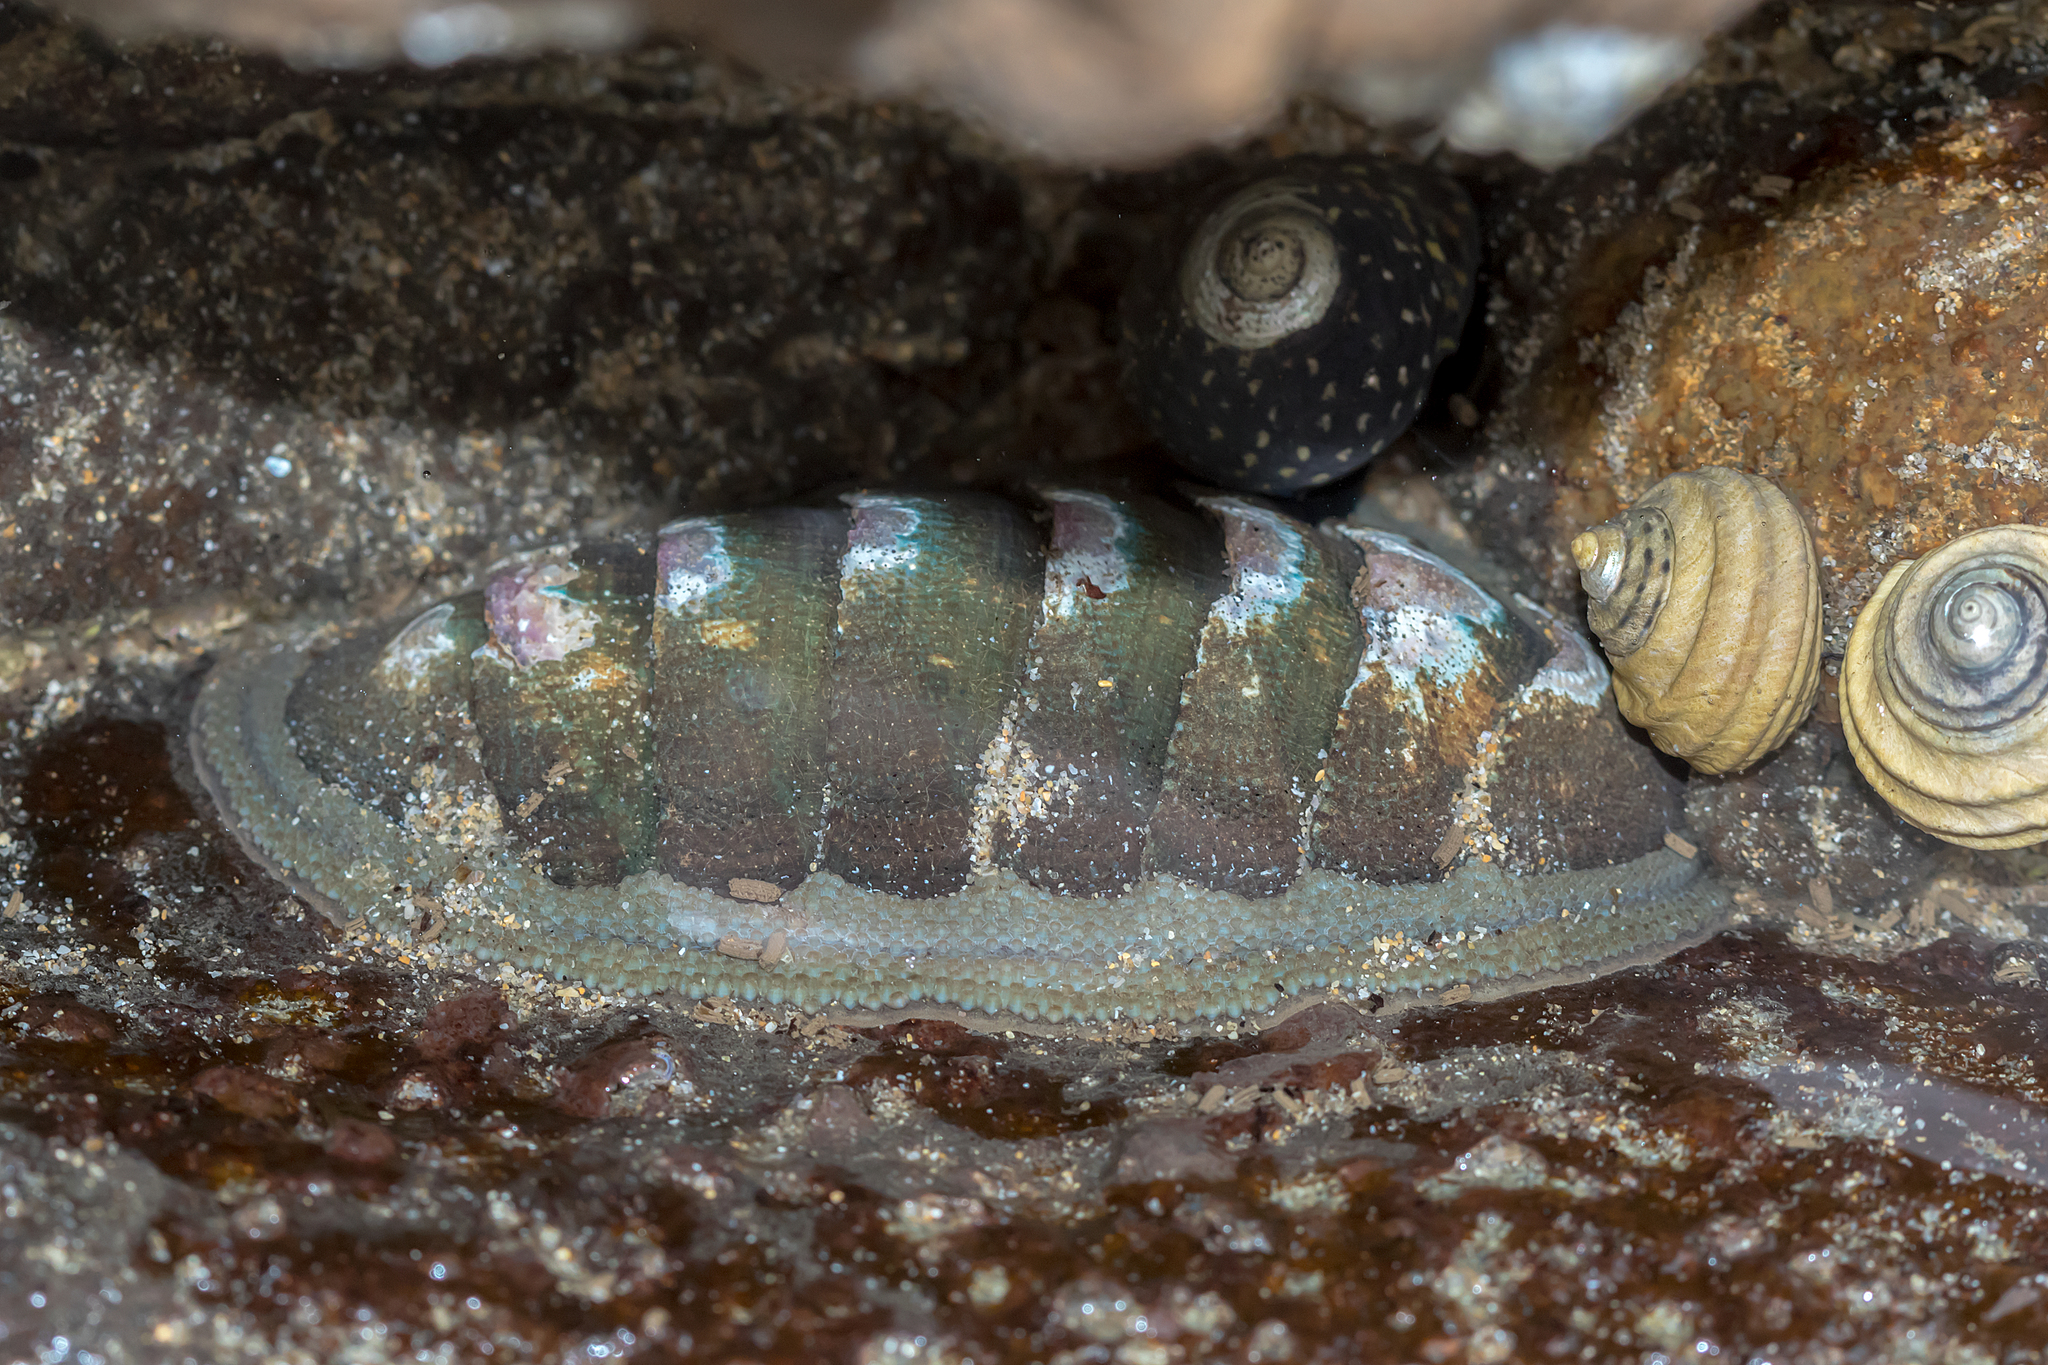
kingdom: Animalia
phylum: Mollusca
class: Polyplacophora
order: Chitonida
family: Ischnochitonidae
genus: Ischnochiton
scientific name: Ischnochiton australis
